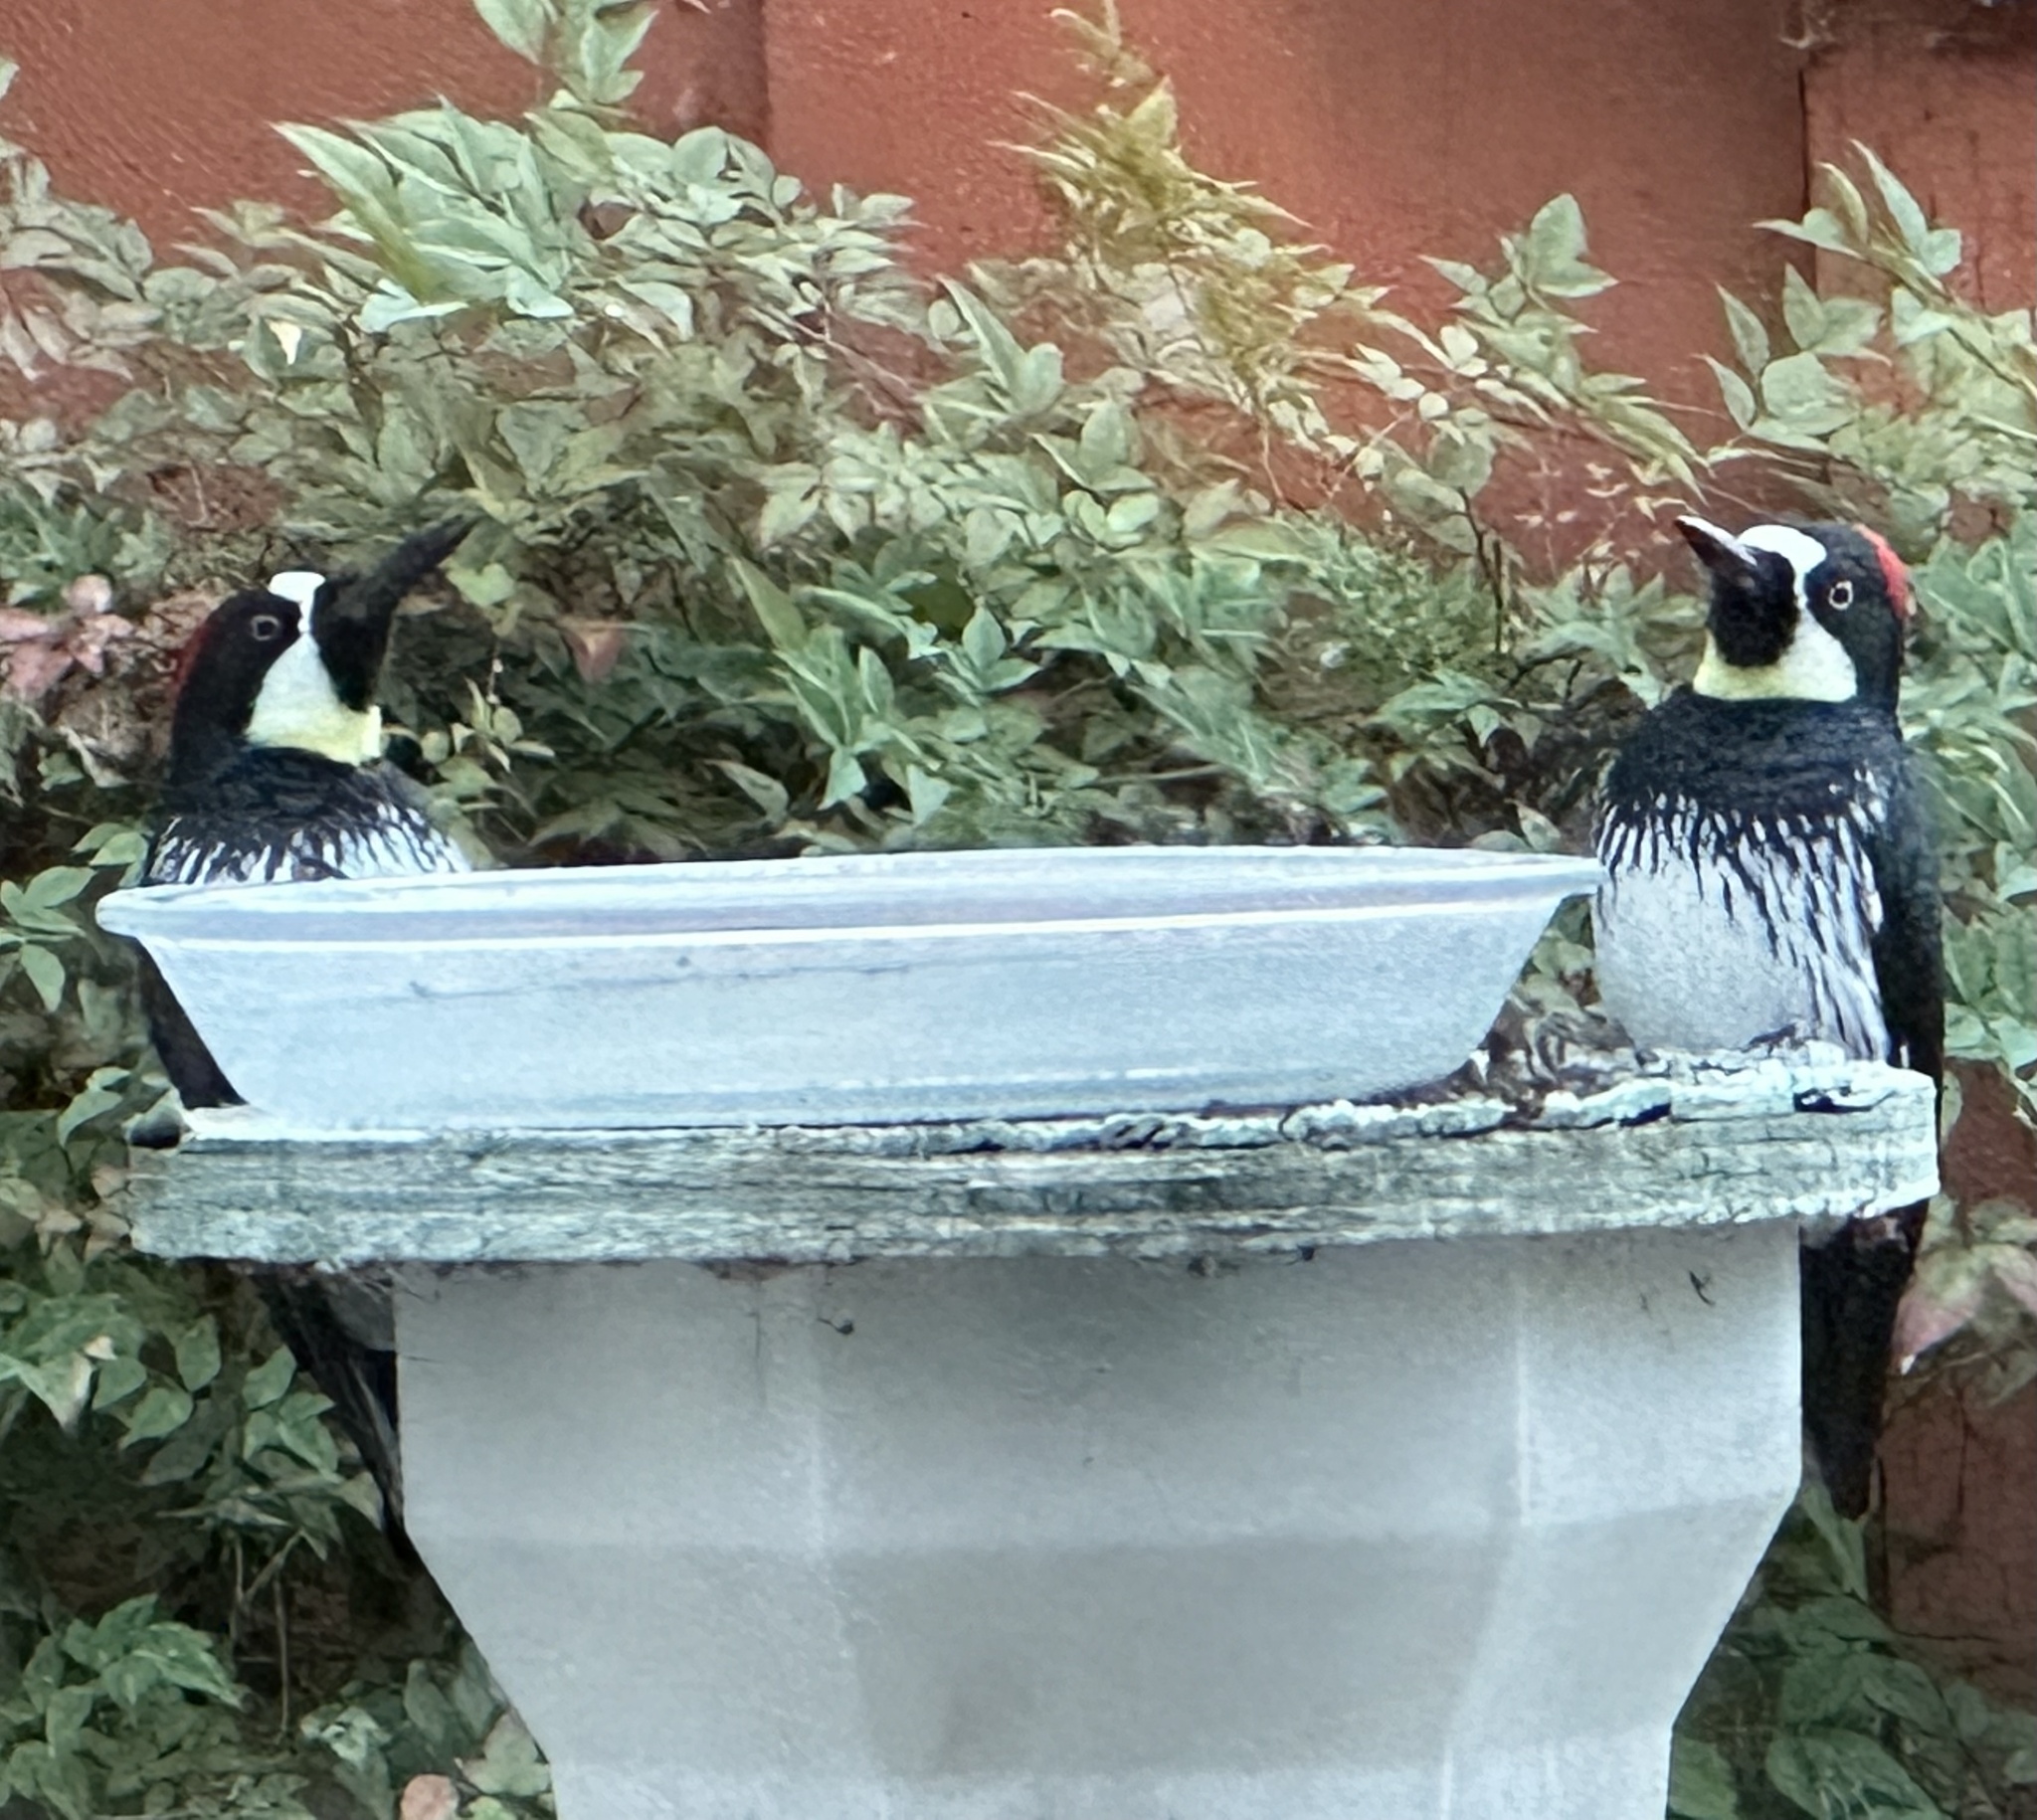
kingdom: Animalia
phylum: Chordata
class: Aves
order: Piciformes
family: Picidae
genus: Melanerpes
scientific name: Melanerpes formicivorus
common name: Acorn woodpecker
